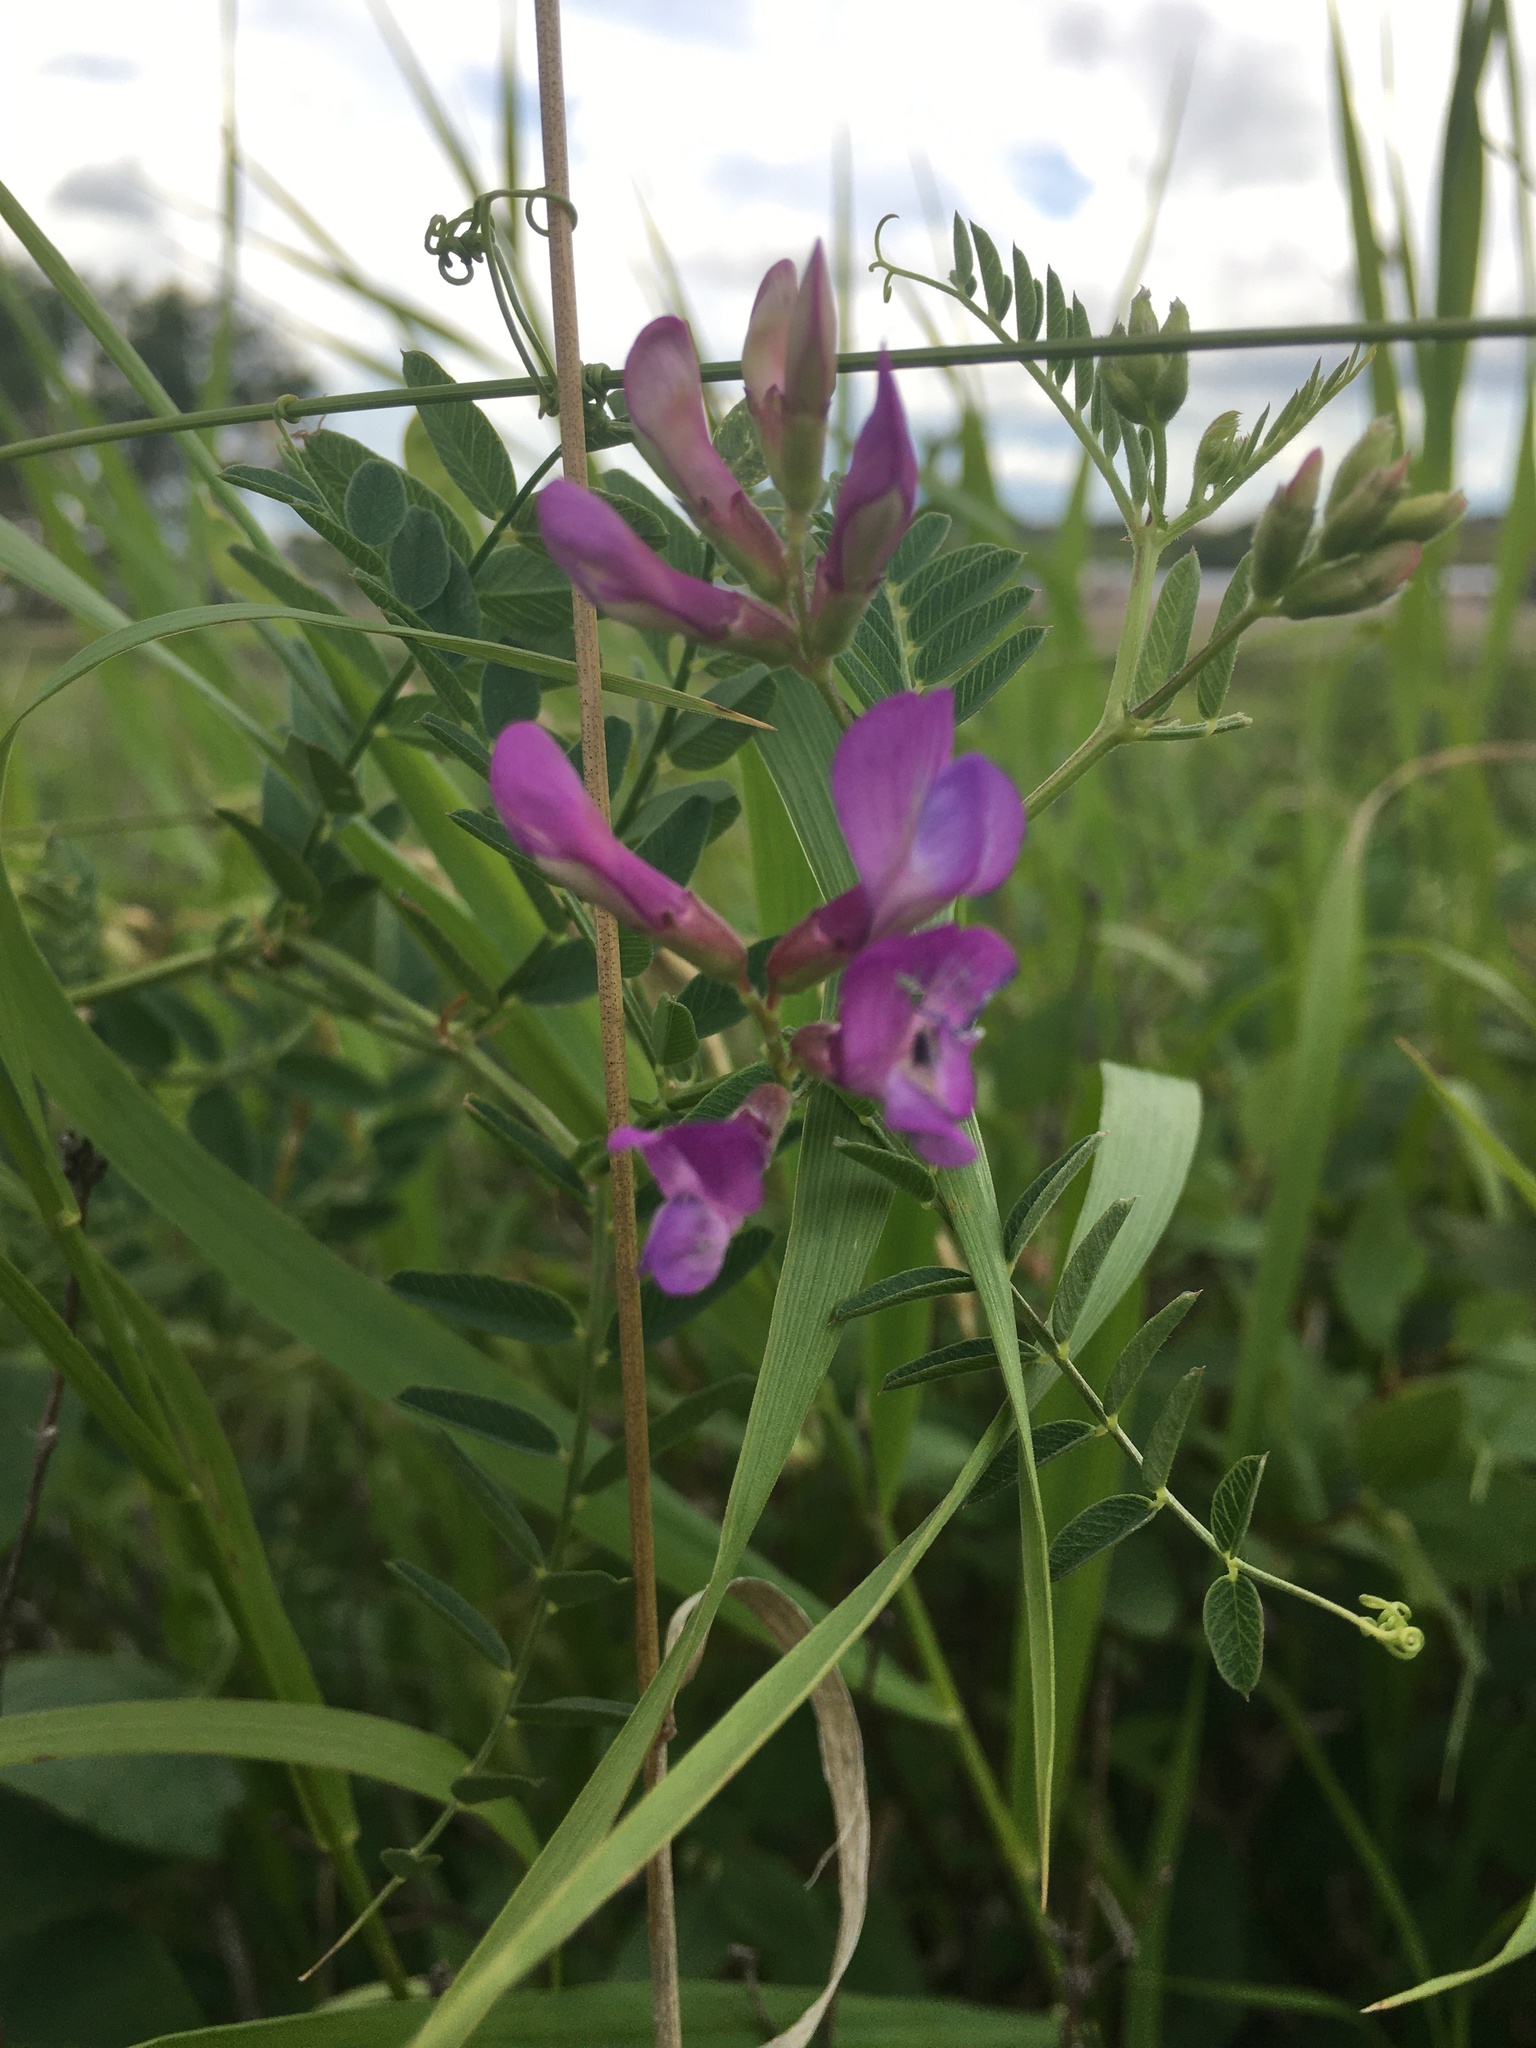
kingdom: Plantae
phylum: Tracheophyta
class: Magnoliopsida
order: Fabales
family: Fabaceae
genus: Vicia
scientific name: Vicia americana
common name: American vetch
